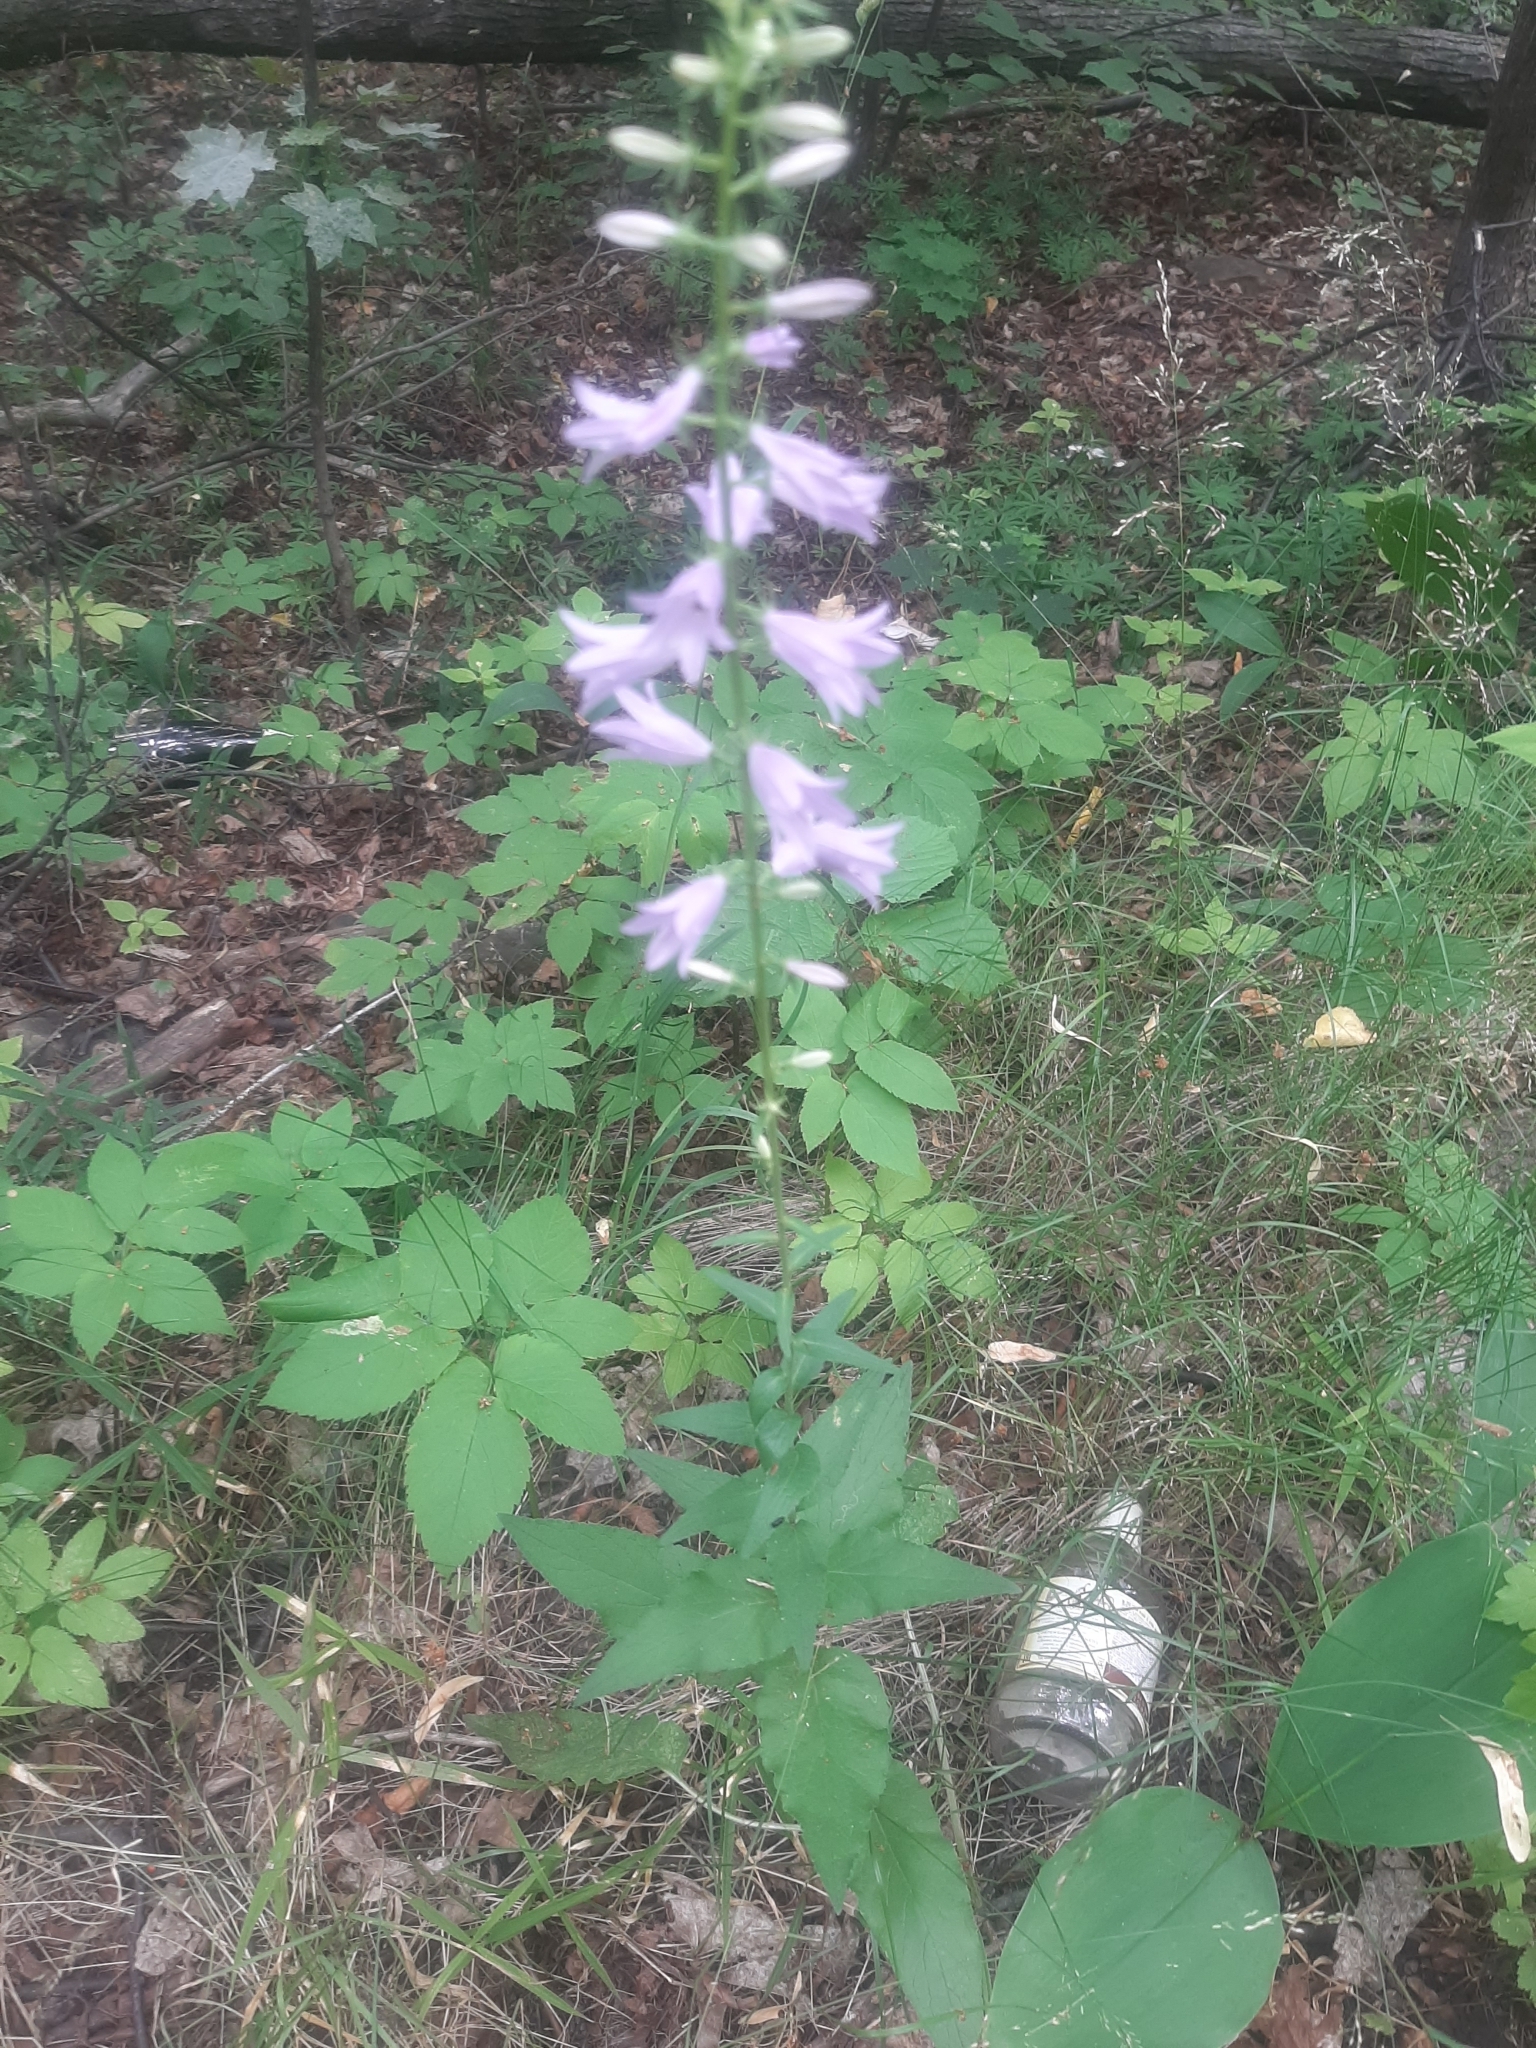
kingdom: Plantae
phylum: Tracheophyta
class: Magnoliopsida
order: Asterales
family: Campanulaceae
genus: Campanula
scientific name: Campanula bononiensis
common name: Pale bellflower
